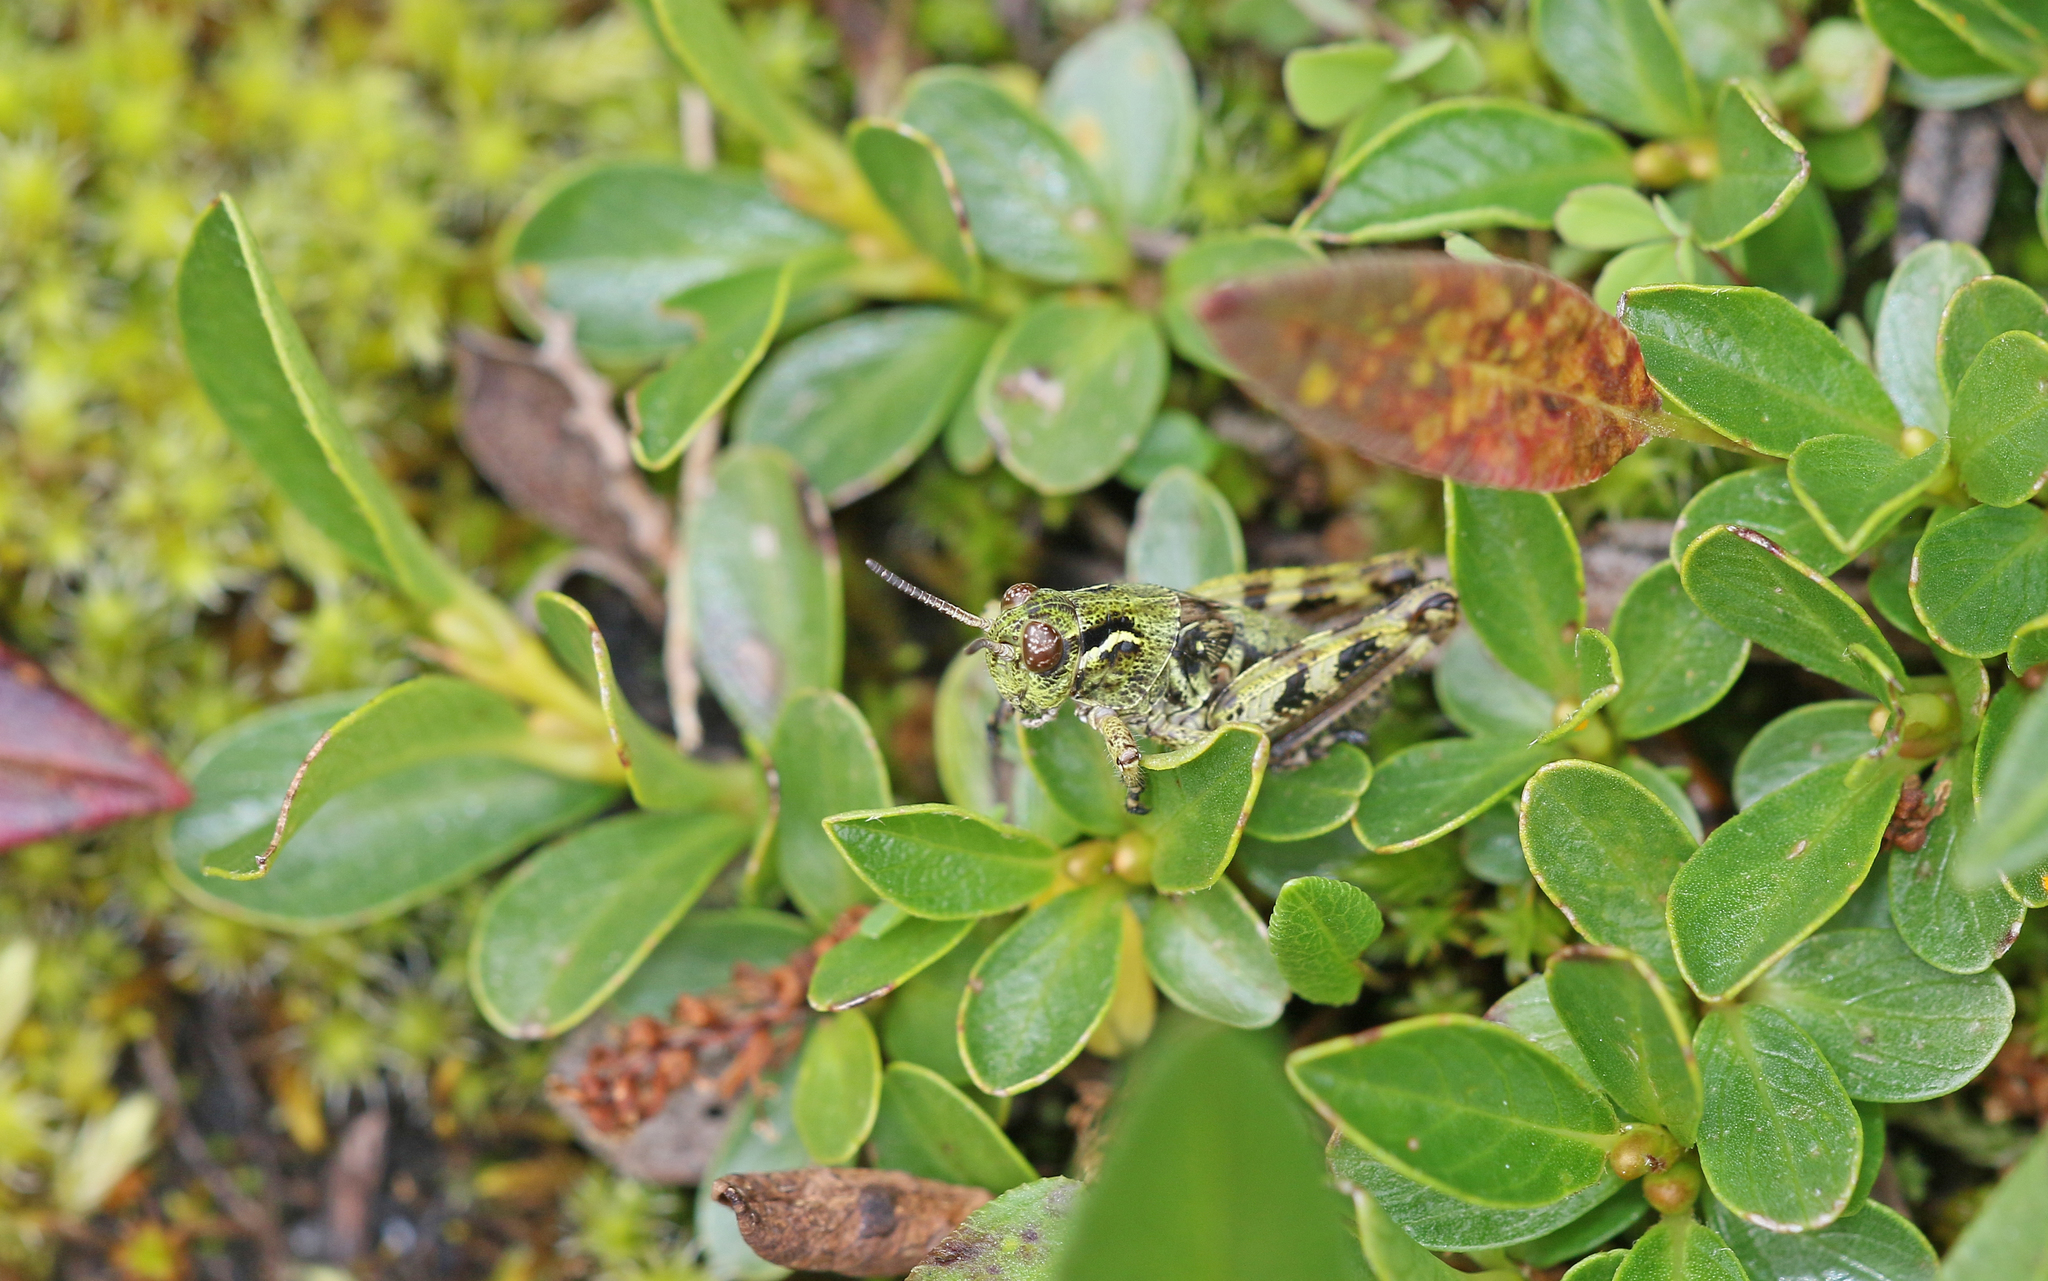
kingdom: Animalia
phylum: Arthropoda
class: Insecta
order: Orthoptera
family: Acrididae
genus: Bohemanella
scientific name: Bohemanella frigida
